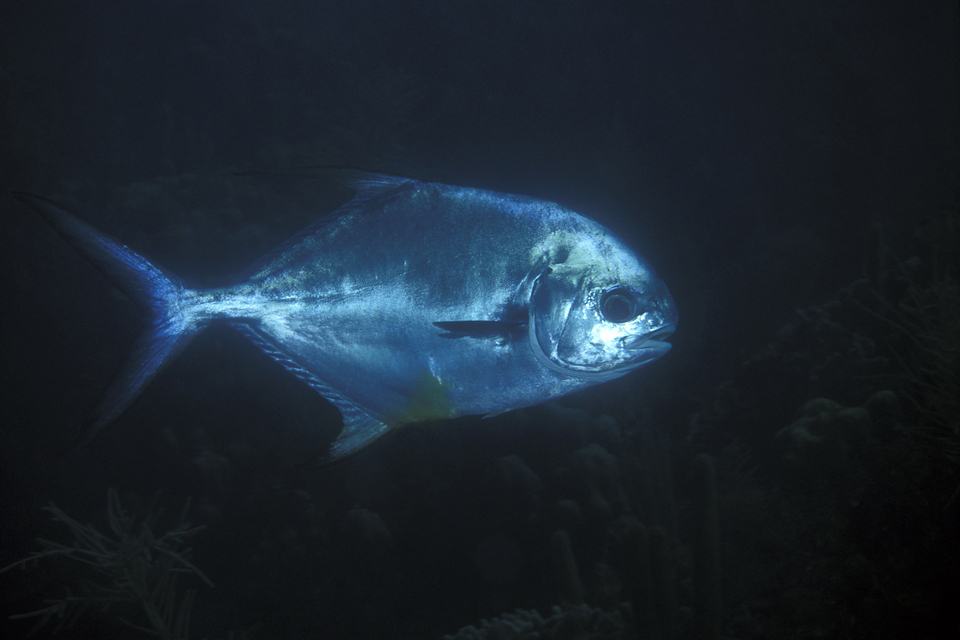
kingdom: Animalia
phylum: Chordata
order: Perciformes
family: Carangidae
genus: Trachinotus
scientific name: Trachinotus falcatus
